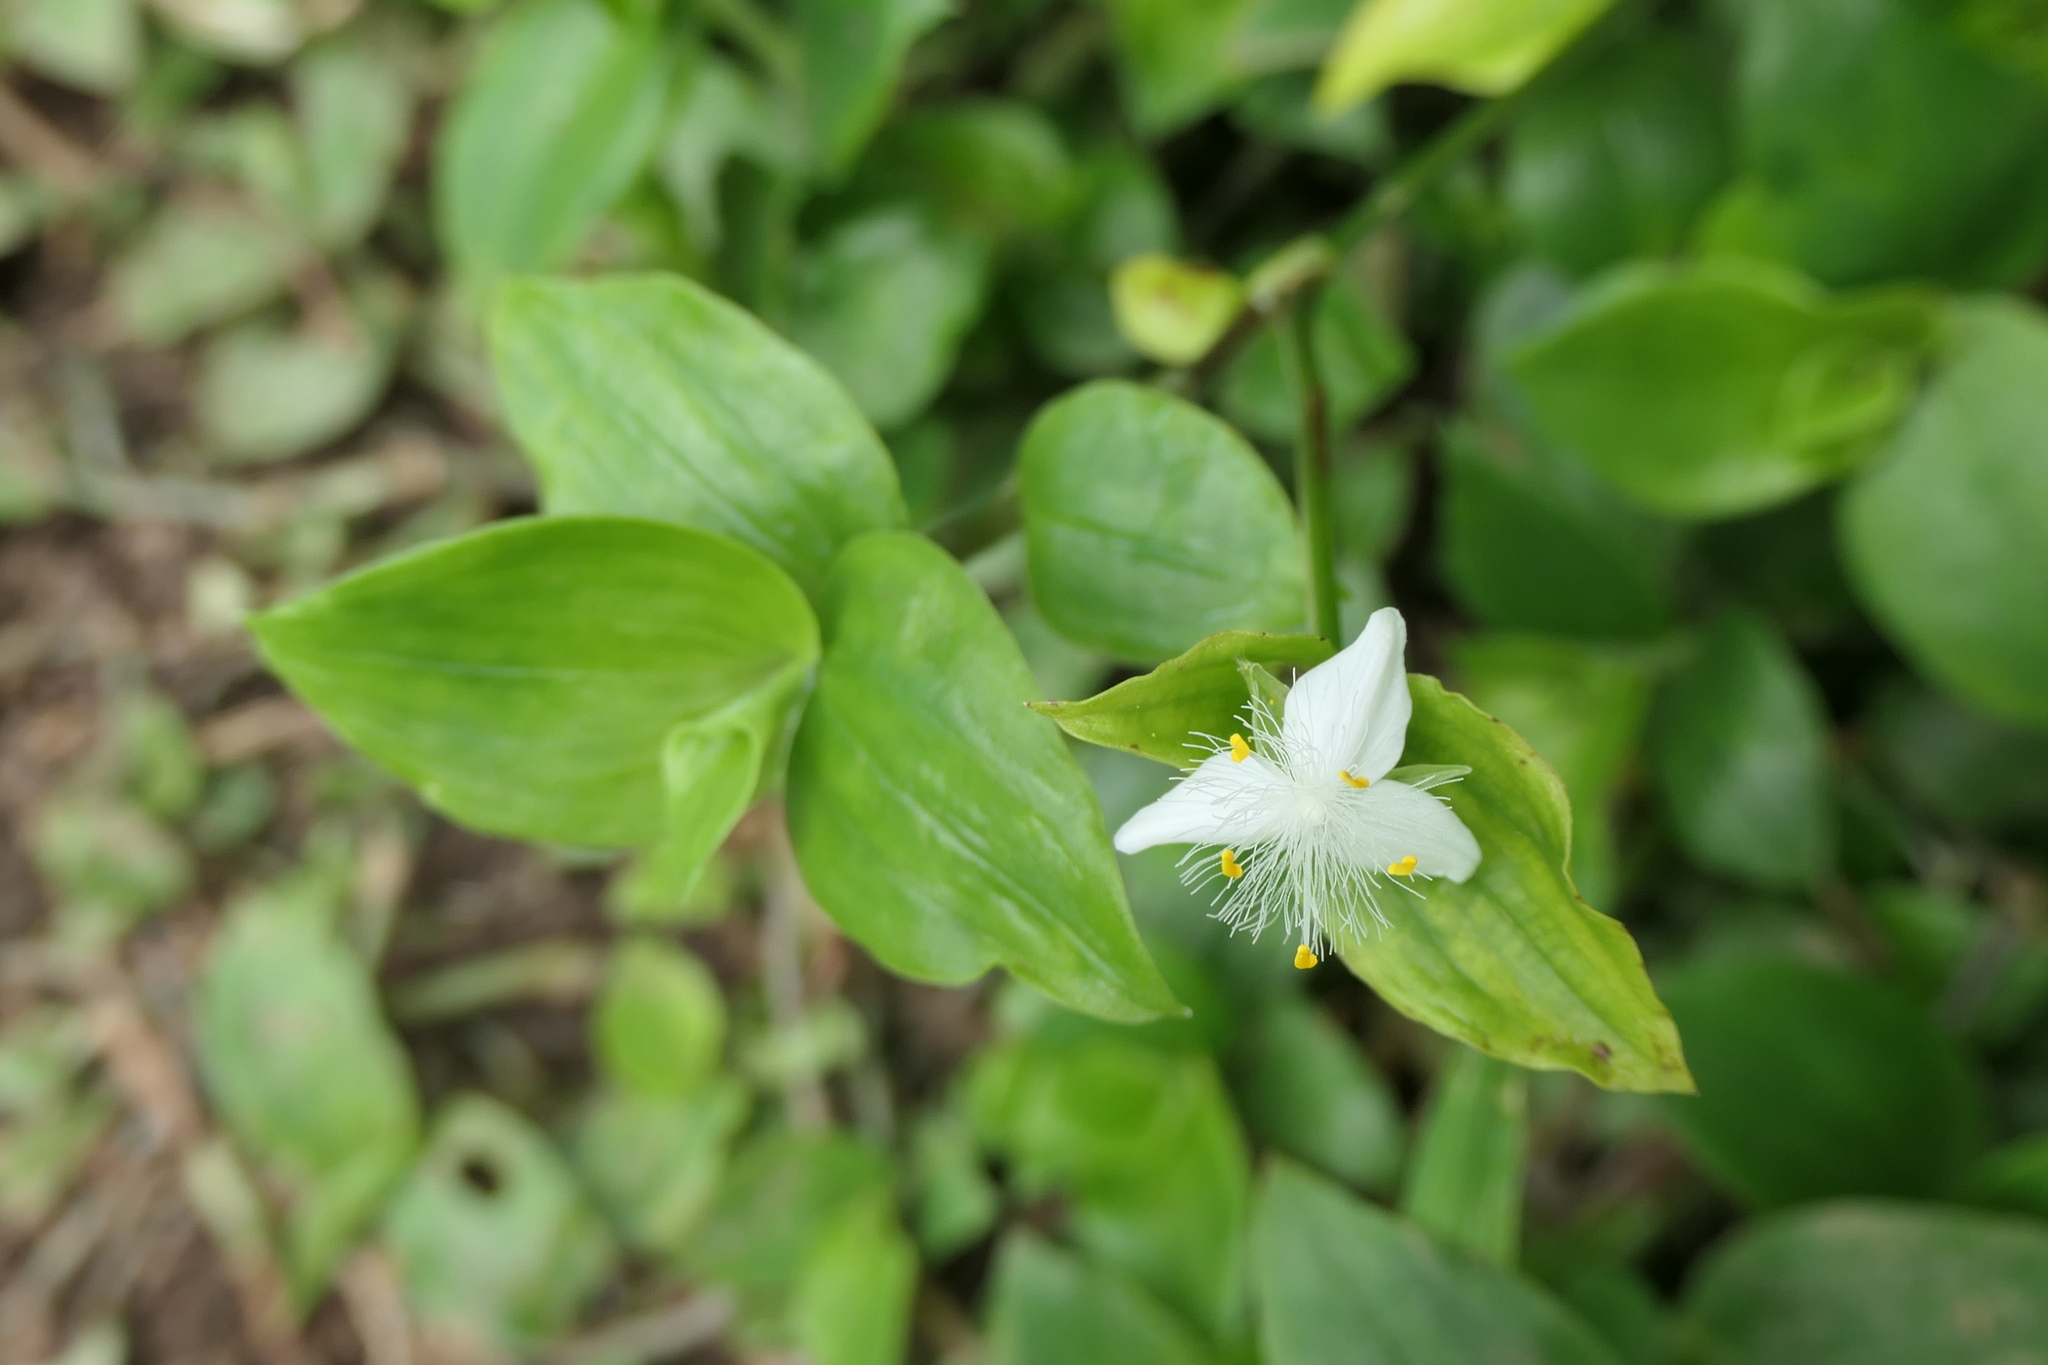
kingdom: Plantae
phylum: Tracheophyta
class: Liliopsida
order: Commelinales
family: Commelinaceae
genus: Tradescantia
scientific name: Tradescantia fluminensis
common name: Wandering-jew
